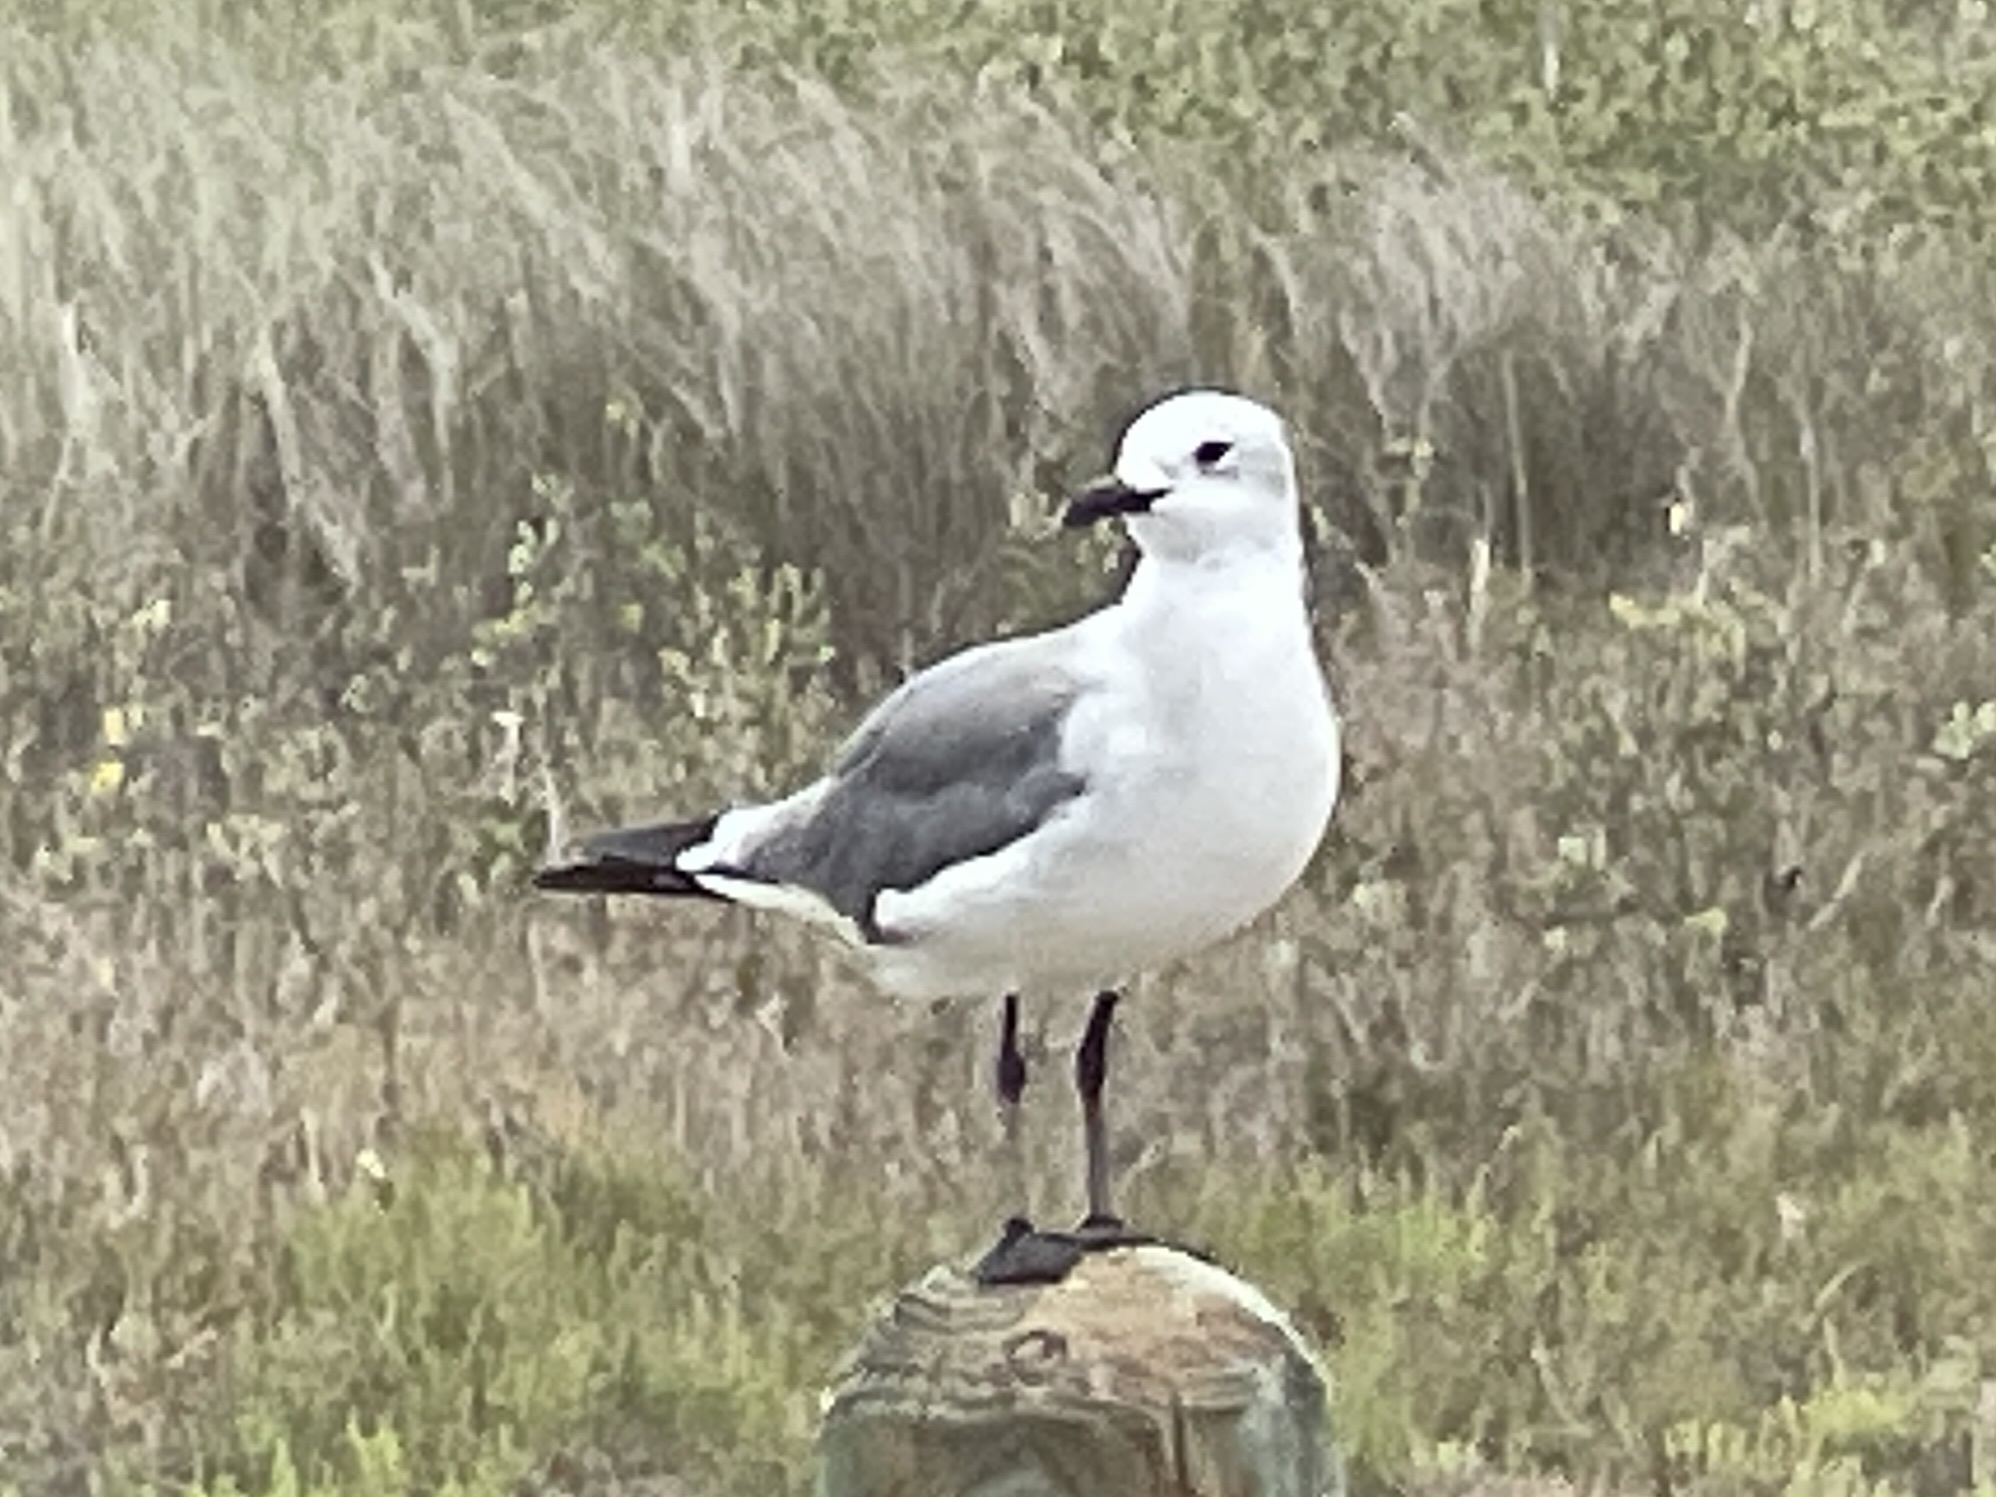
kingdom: Animalia
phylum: Chordata
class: Aves
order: Charadriiformes
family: Laridae
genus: Leucophaeus
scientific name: Leucophaeus atricilla
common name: Laughing gull
